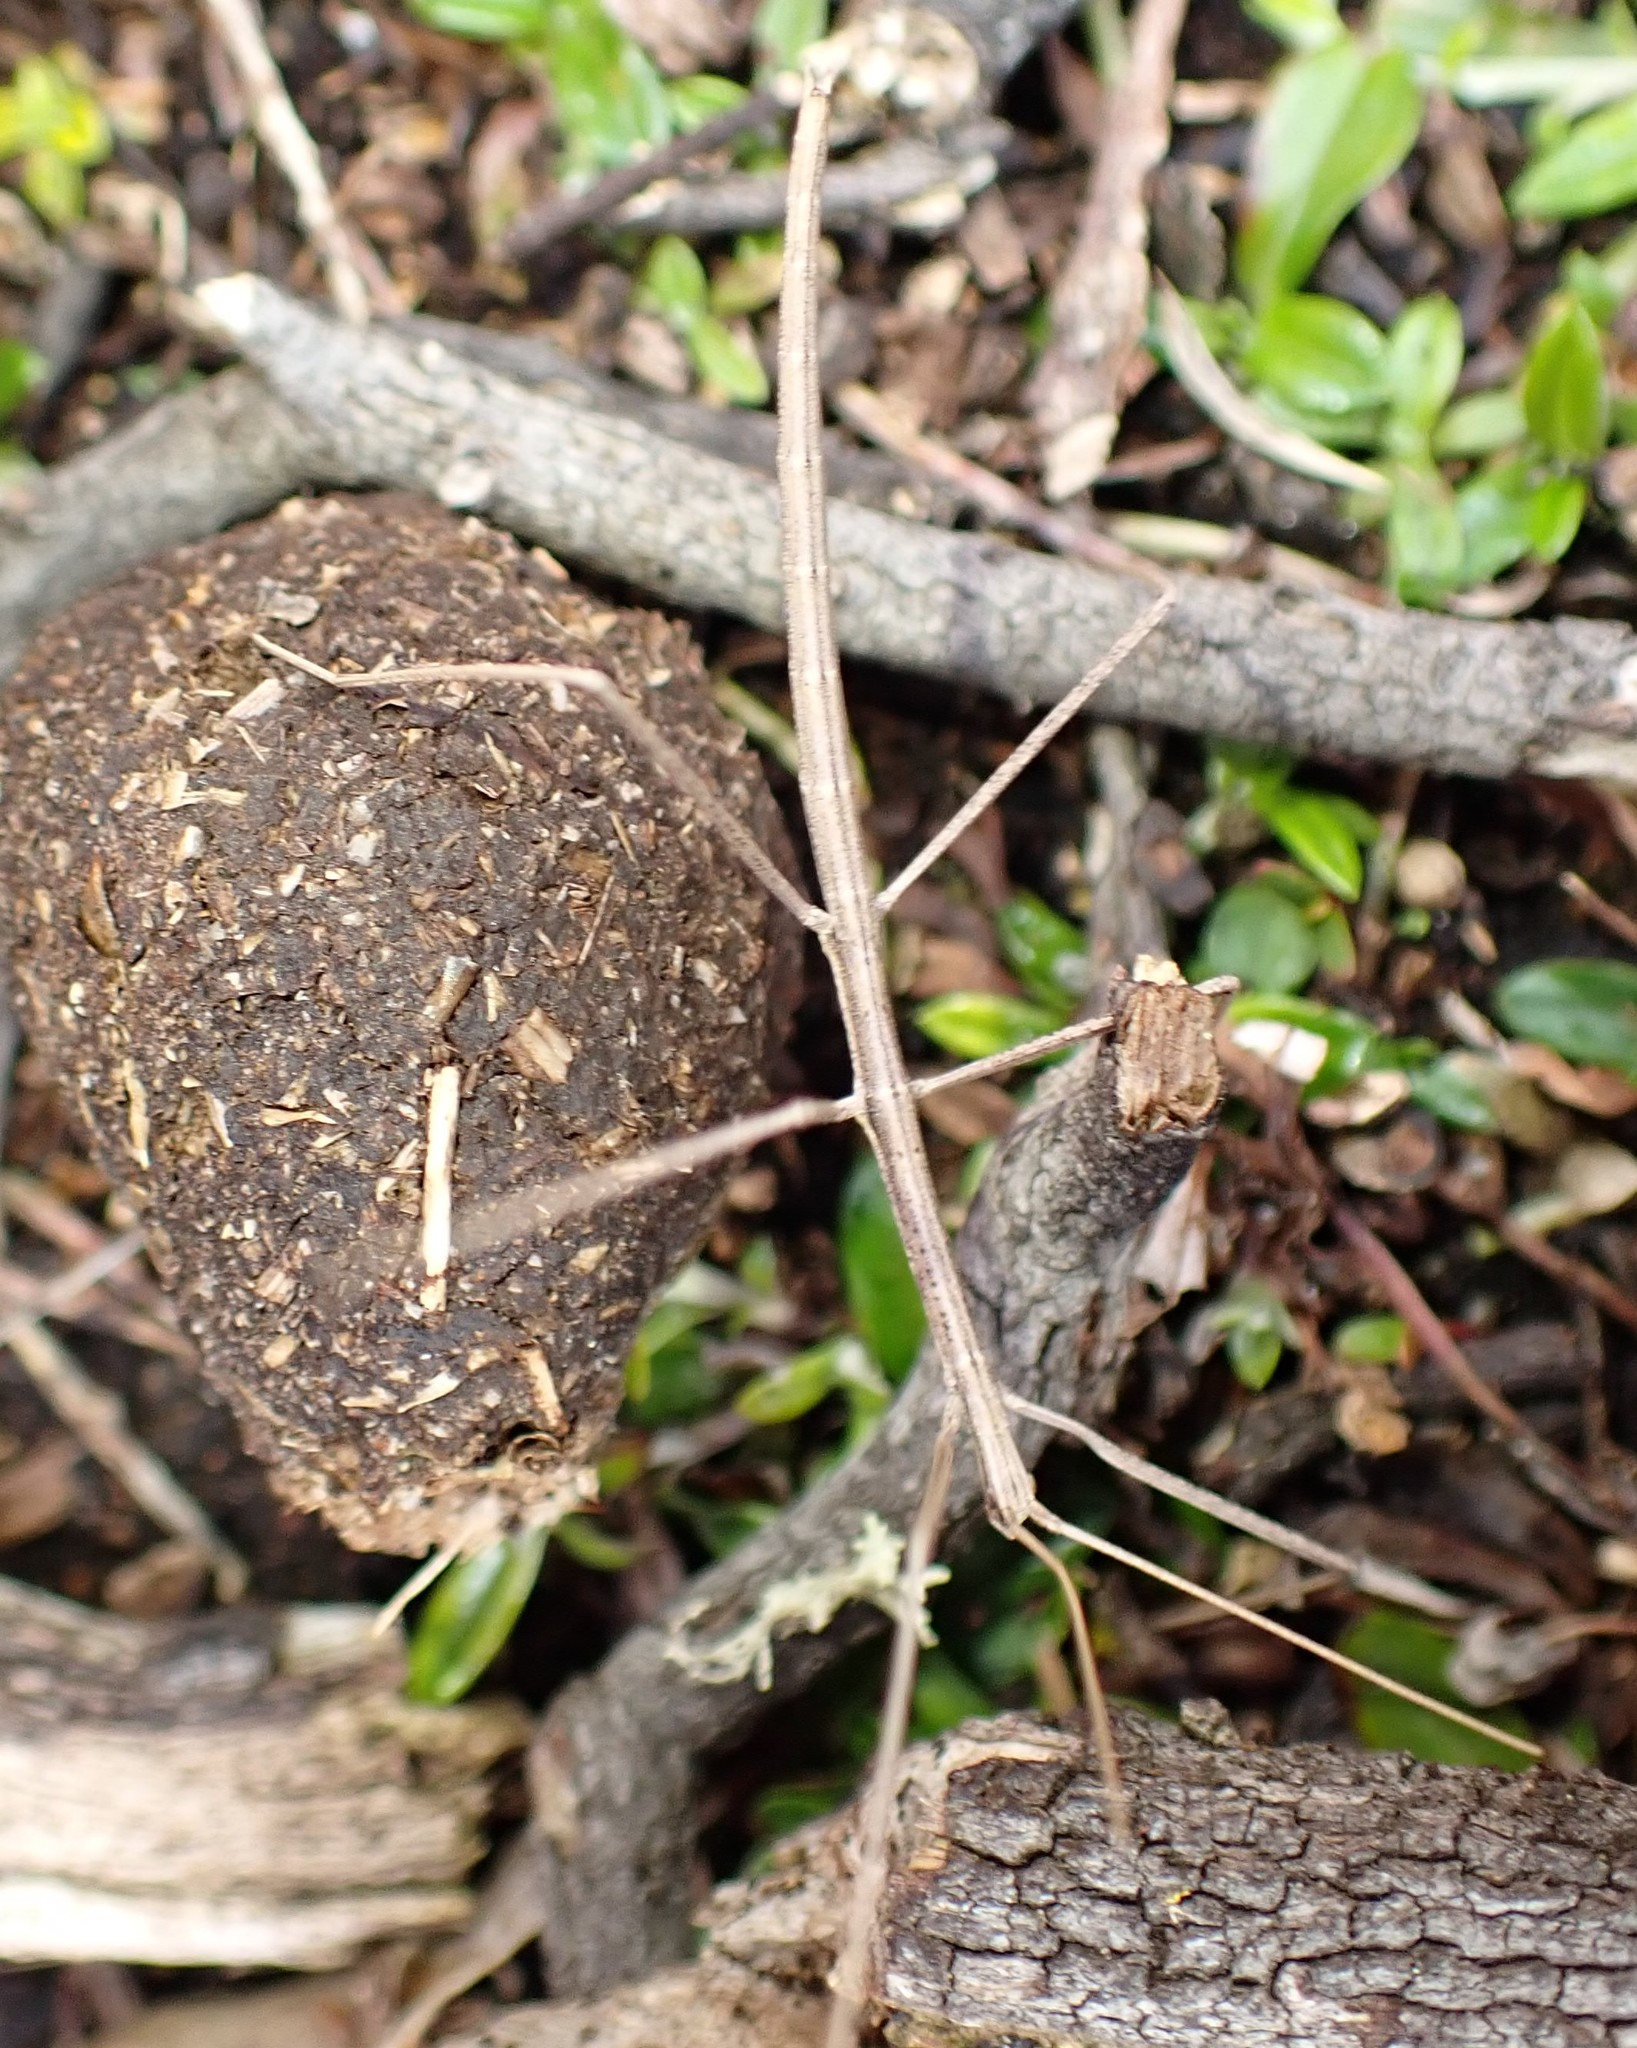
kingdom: Animalia
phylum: Arthropoda
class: Insecta
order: Phasmida
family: Lonchodidae
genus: Candovia
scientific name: Candovia
